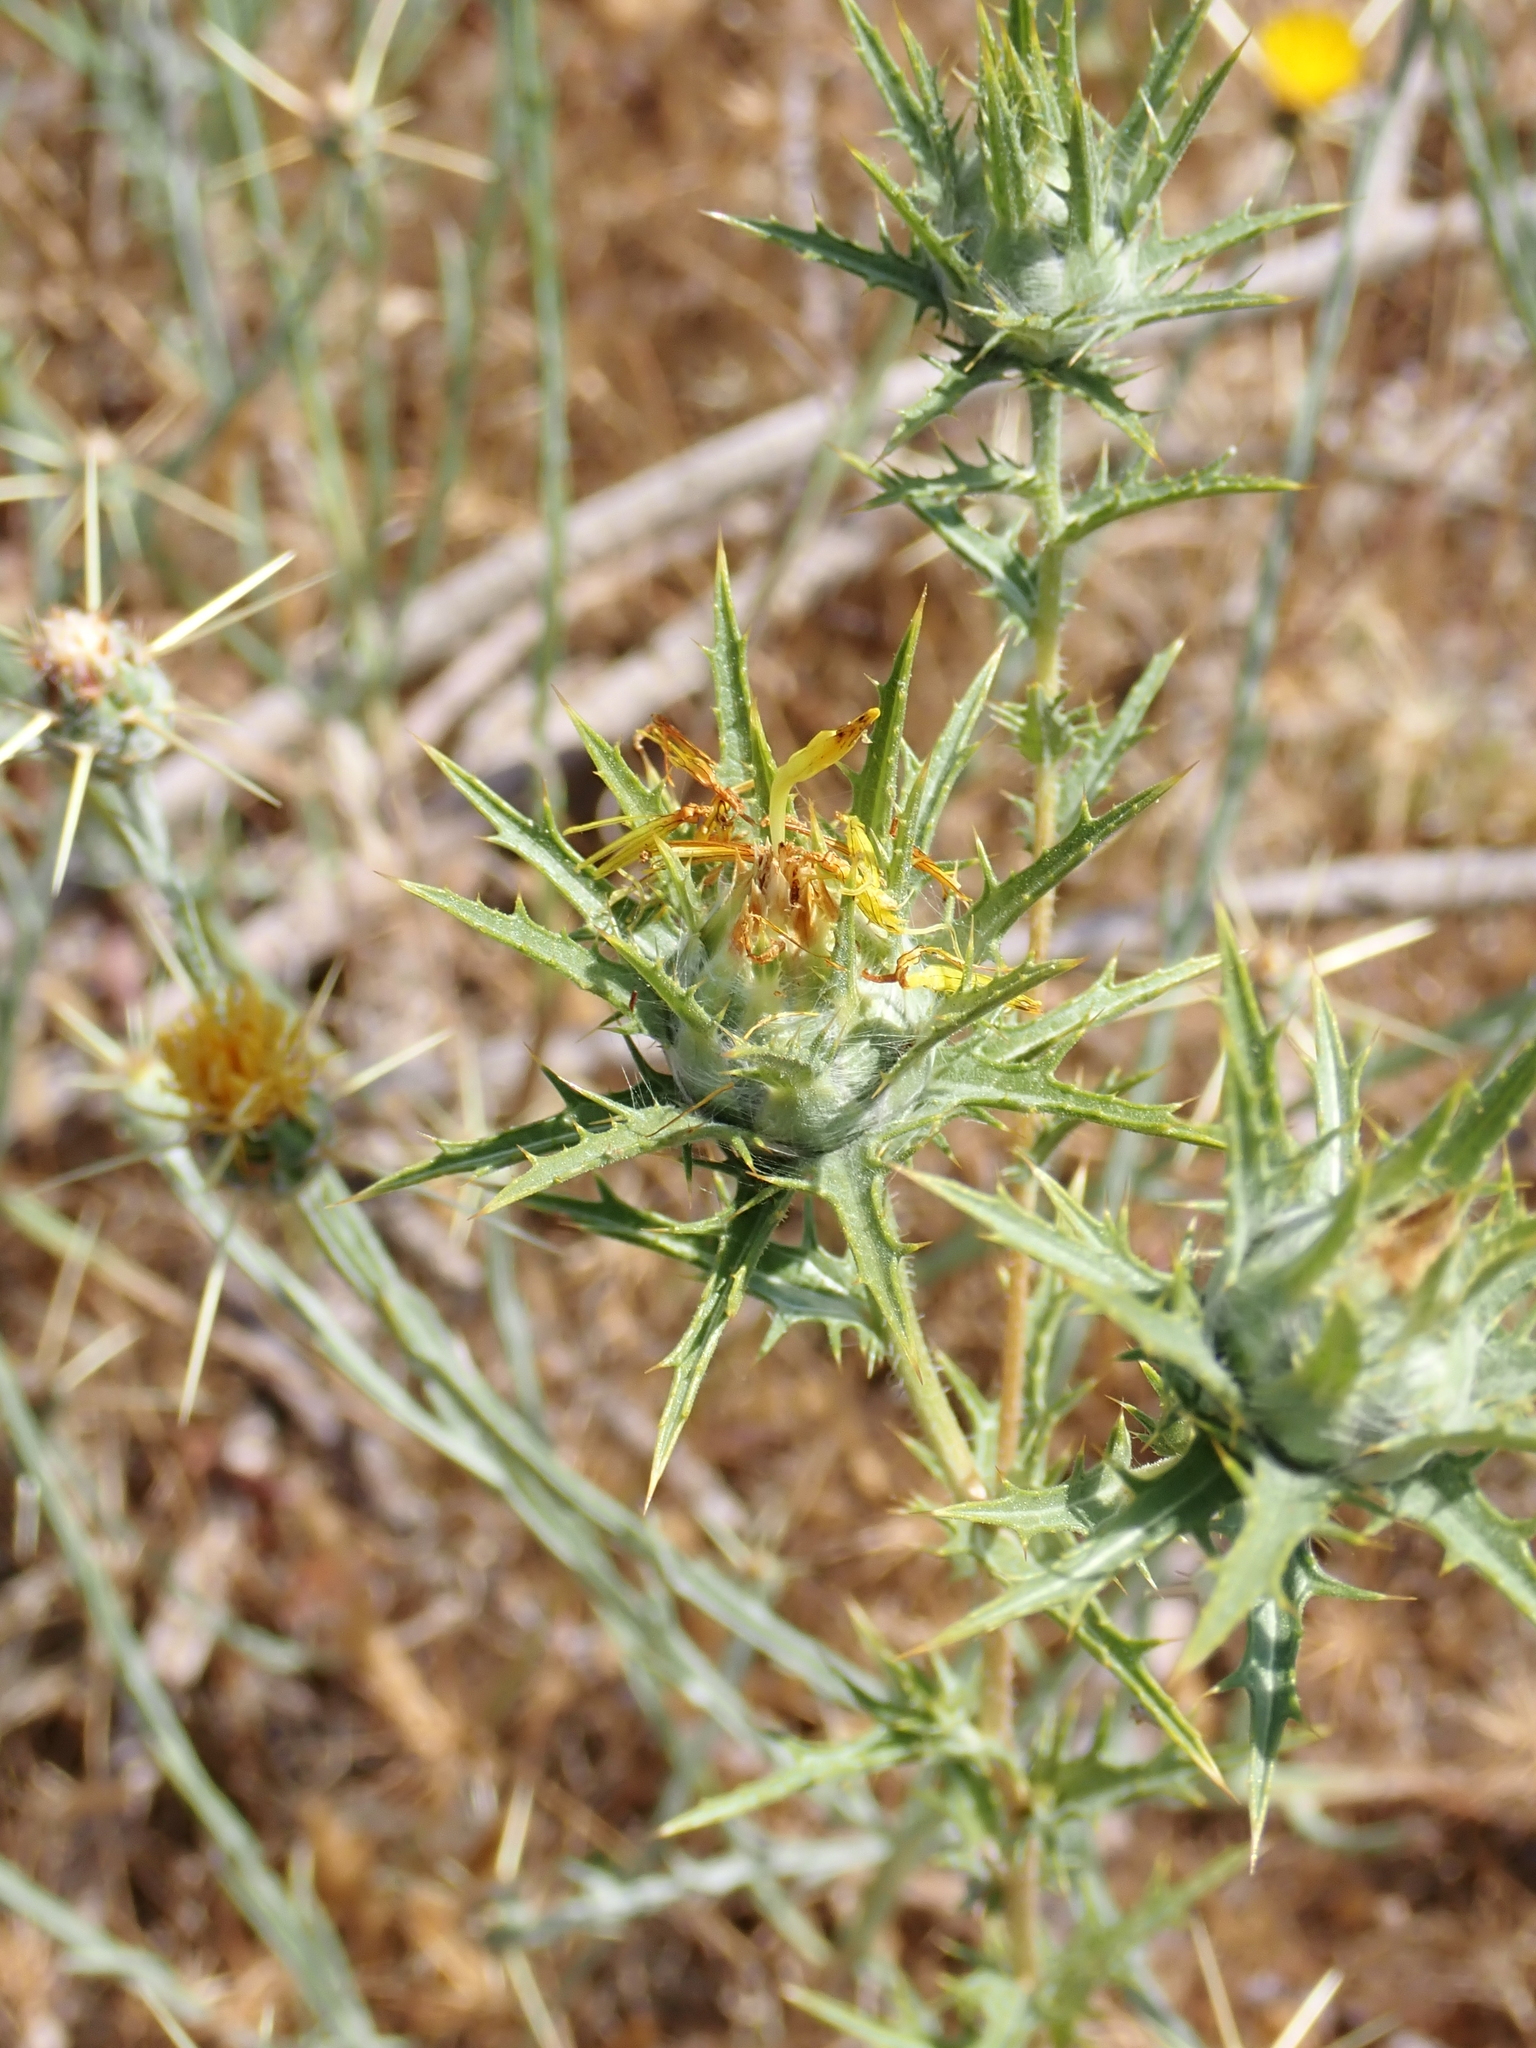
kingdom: Plantae
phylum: Tracheophyta
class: Magnoliopsida
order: Asterales
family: Asteraceae
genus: Carthamus
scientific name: Carthamus lanatus
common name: Downy safflower
